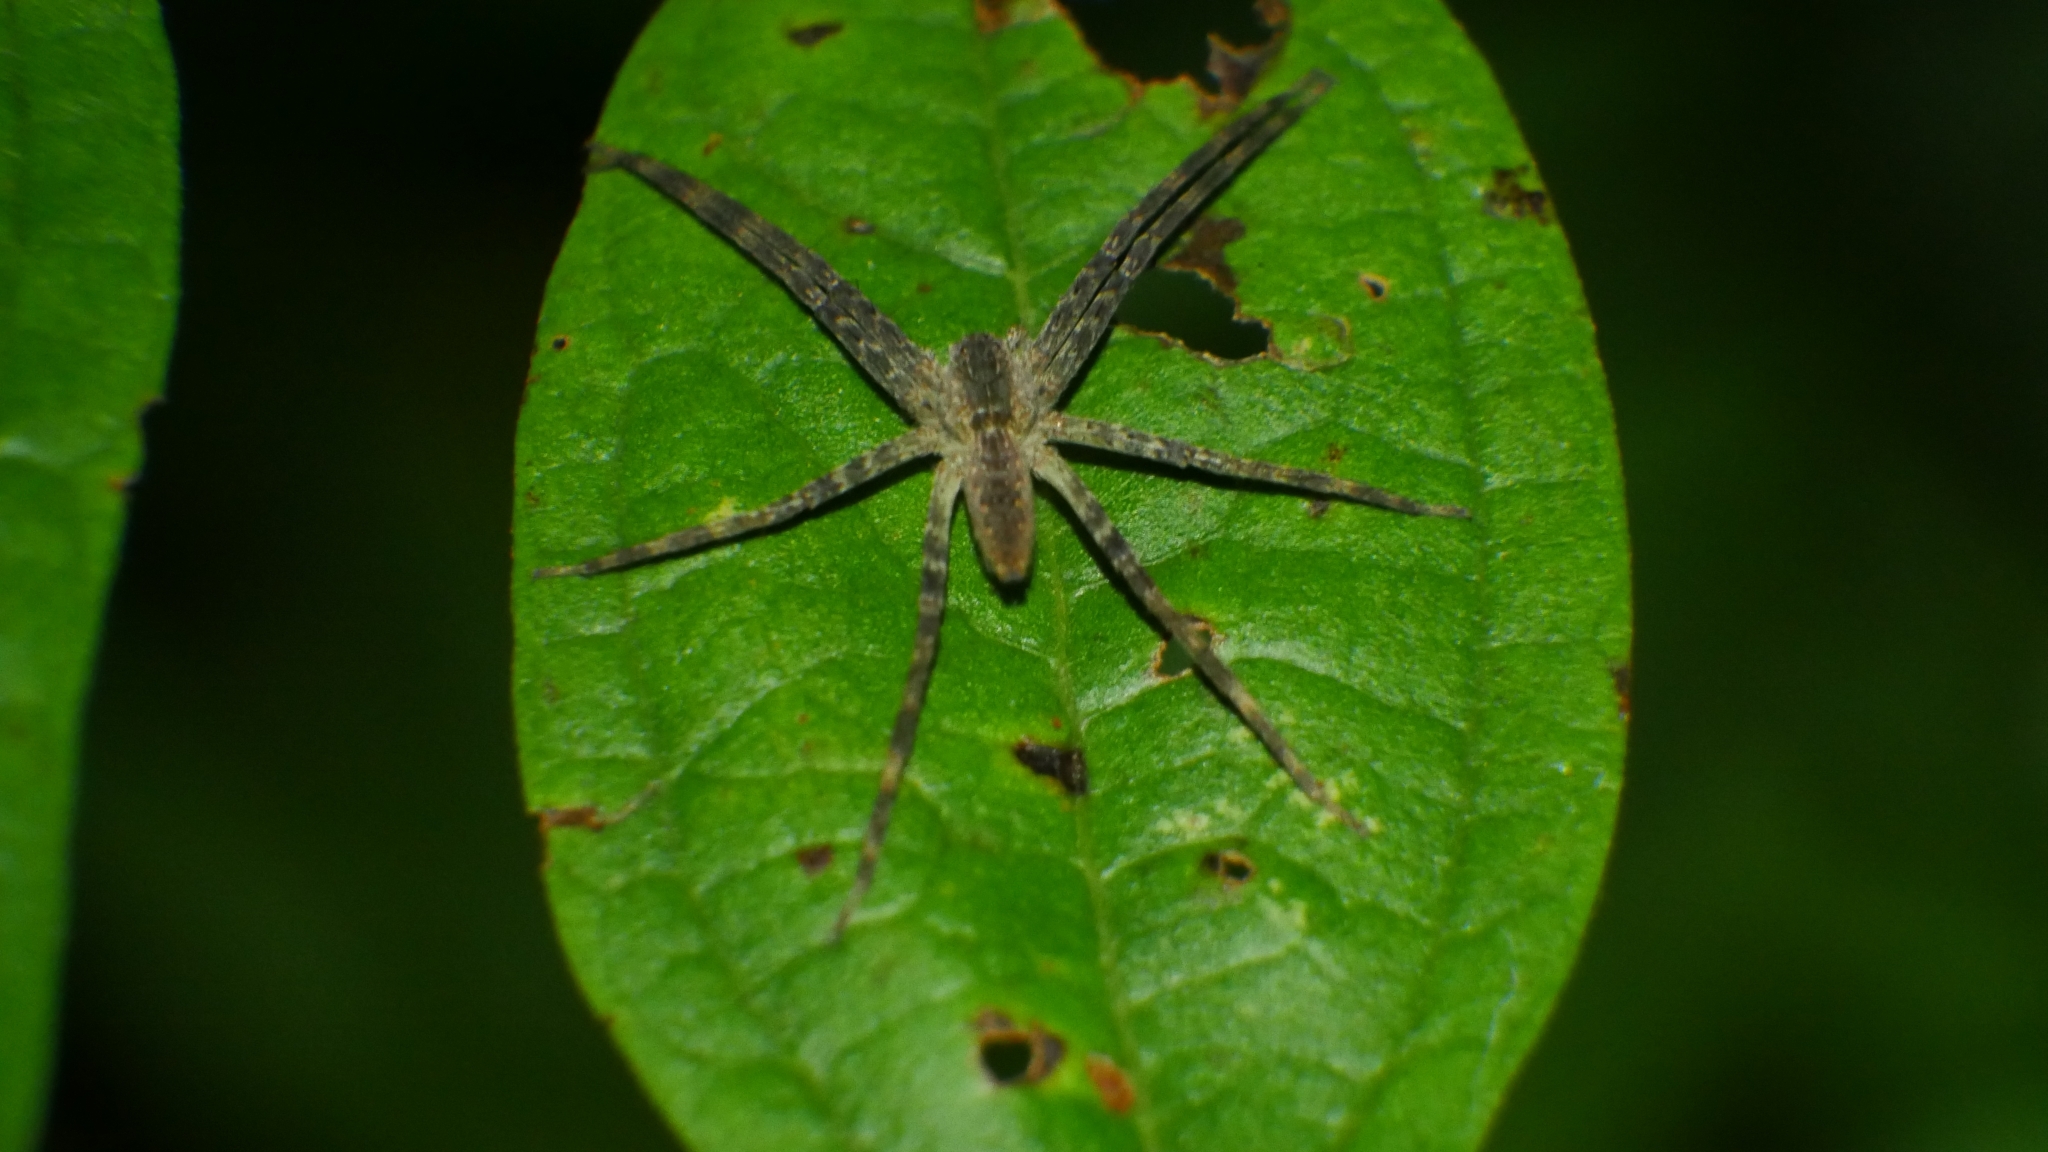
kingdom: Animalia
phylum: Arthropoda
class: Arachnida
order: Araneae
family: Pisauridae
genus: Pisaurina
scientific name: Pisaurina mira
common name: American nursery web spider
